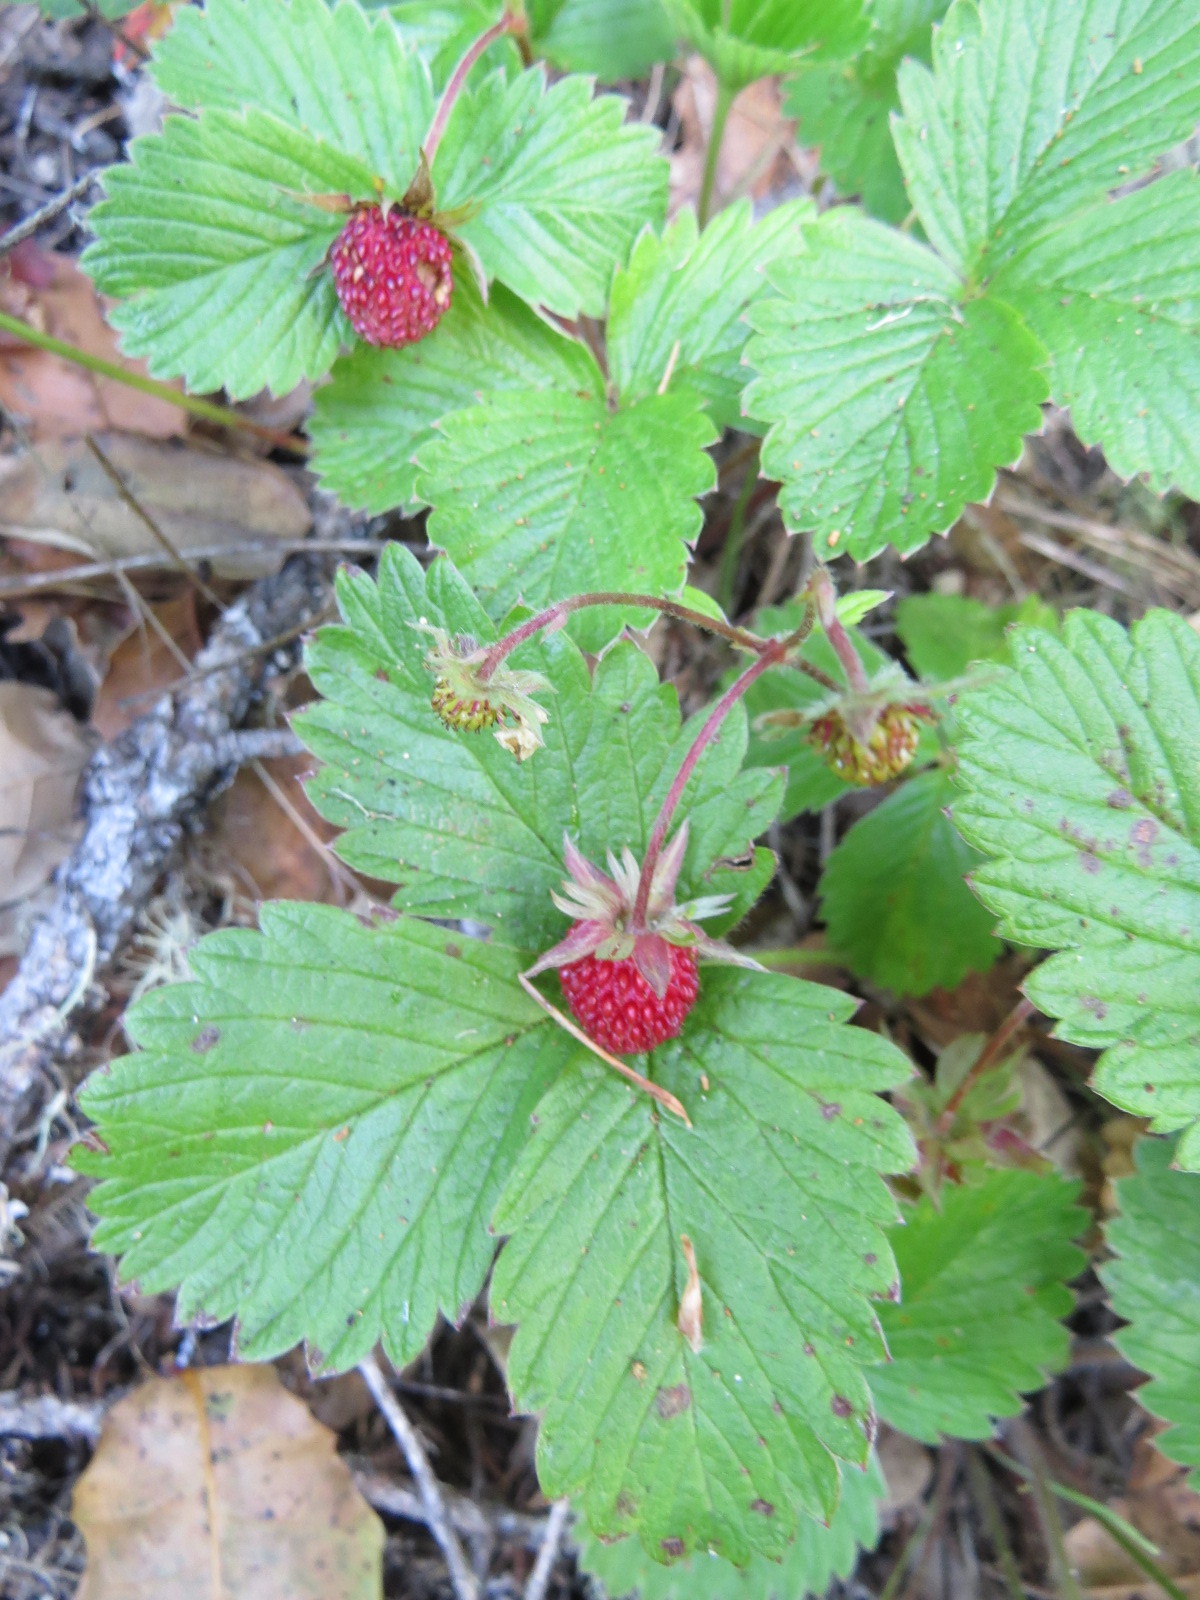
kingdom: Plantae
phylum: Tracheophyta
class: Magnoliopsida
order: Rosales
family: Rosaceae
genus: Fragaria
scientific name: Fragaria vesca
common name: Wild strawberry
